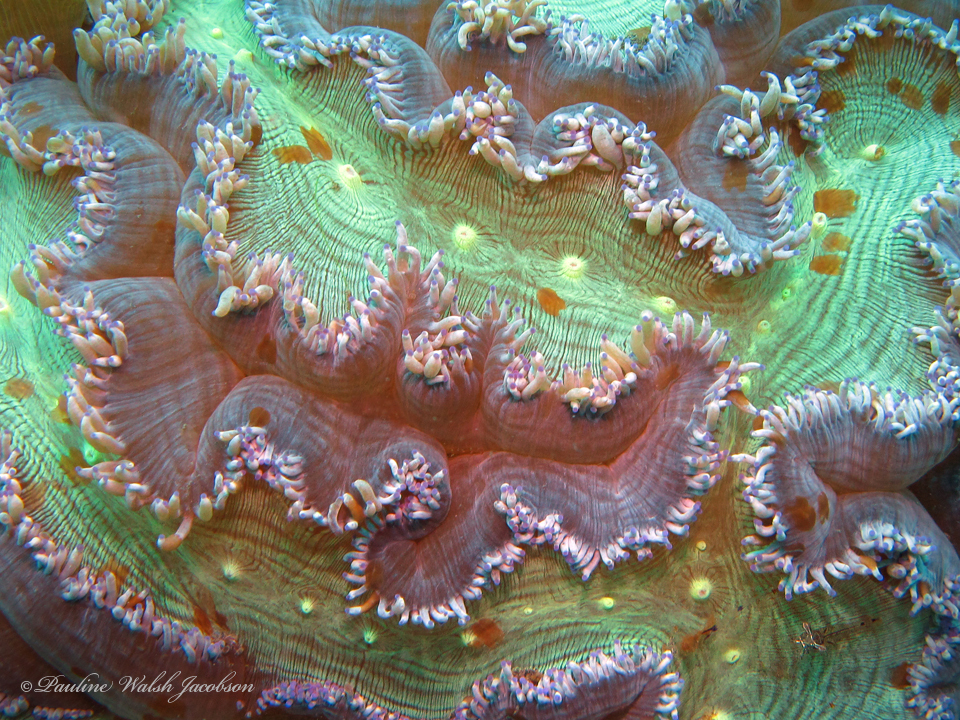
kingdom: Animalia
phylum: Cnidaria
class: Anthozoa
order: Scleractinia
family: Merulinidae
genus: Catalaphyllia
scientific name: Catalaphyllia jardinei
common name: Wonder coral
